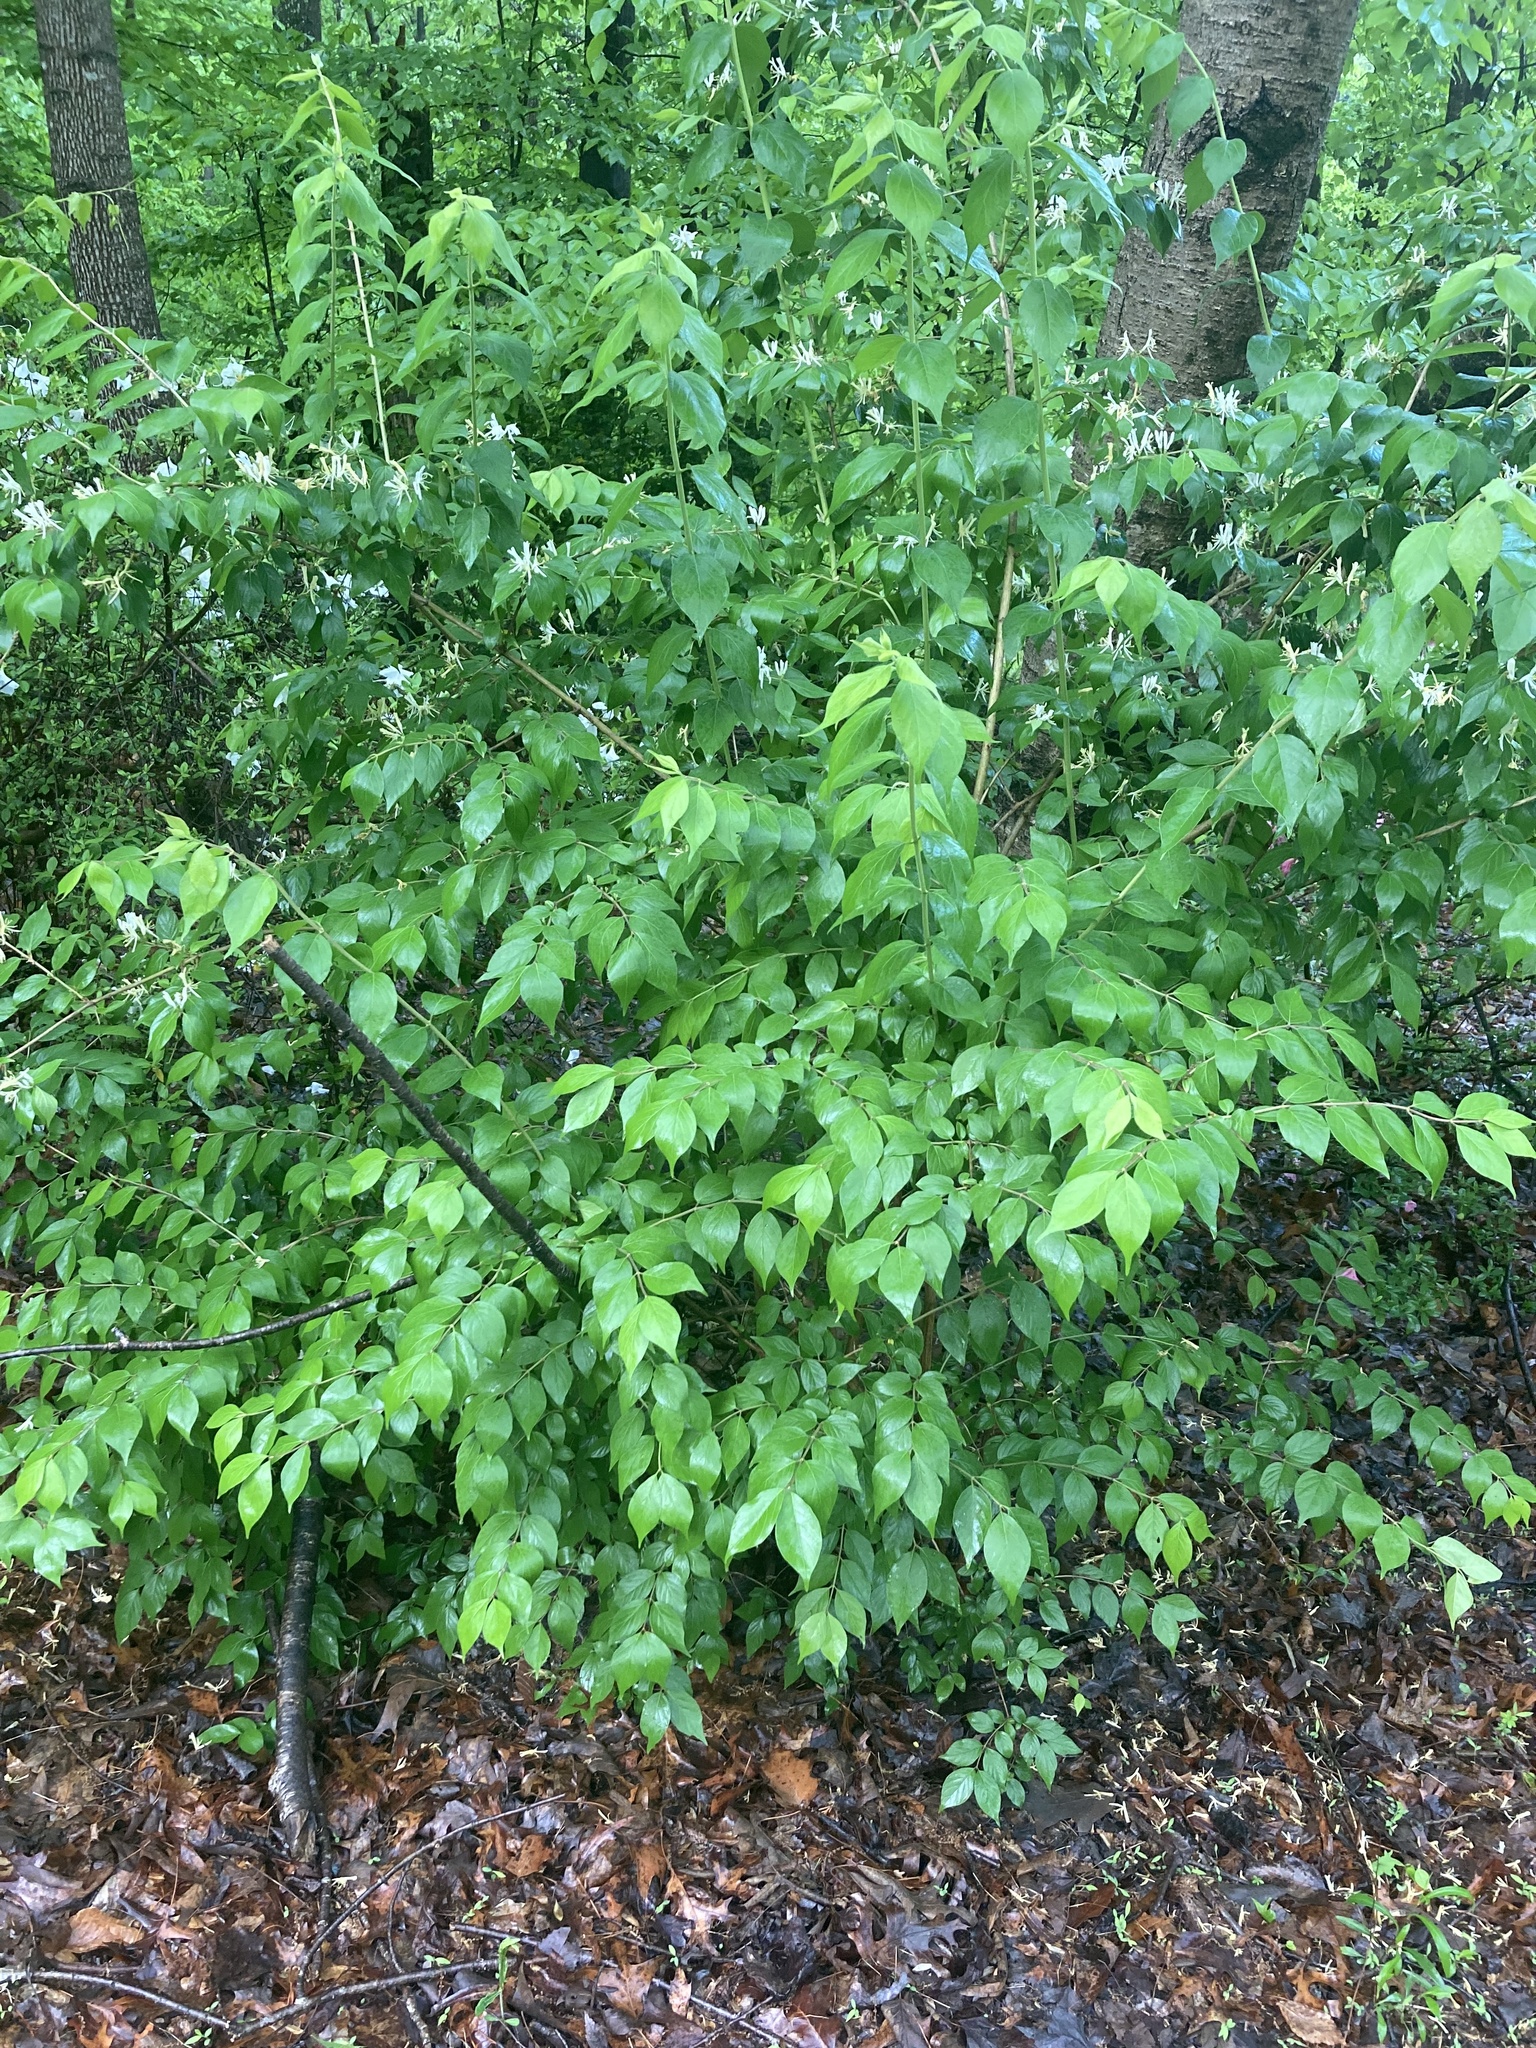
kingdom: Plantae
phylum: Tracheophyta
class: Magnoliopsida
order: Dipsacales
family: Caprifoliaceae
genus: Lonicera
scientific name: Lonicera maackii
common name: Amur honeysuckle
